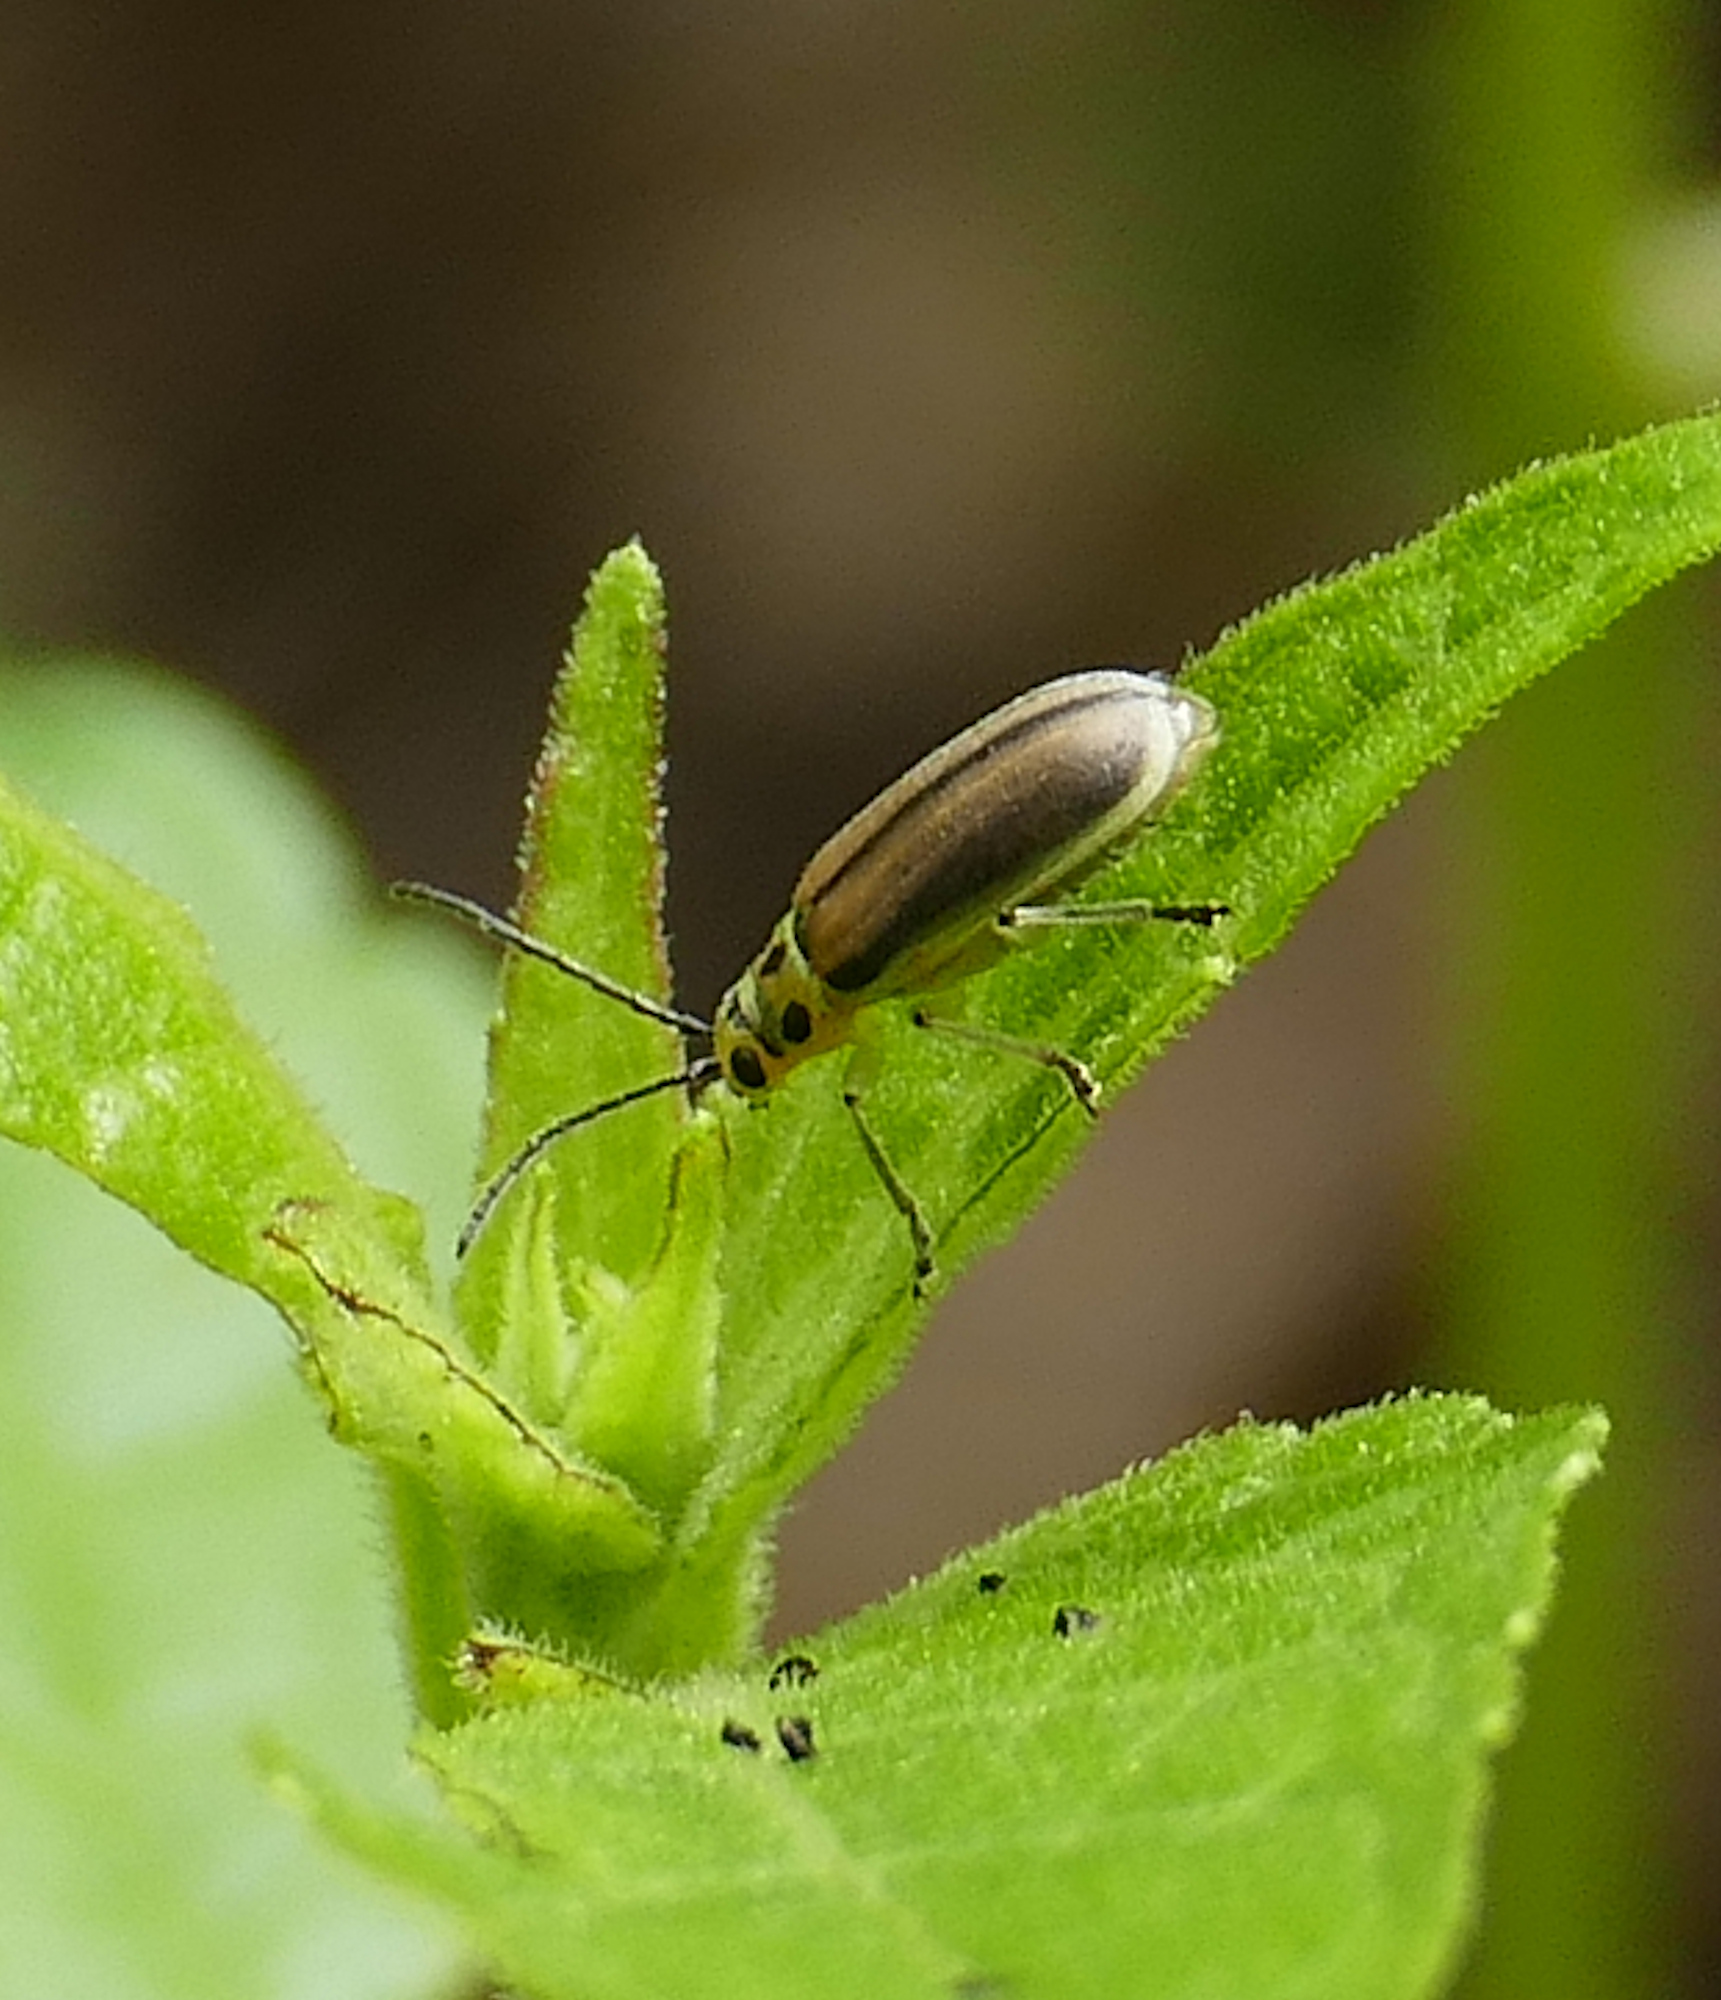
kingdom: Animalia
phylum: Arthropoda
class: Insecta
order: Coleoptera
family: Chrysomelidae
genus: Trirhabda
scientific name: Trirhabda schwarzi
